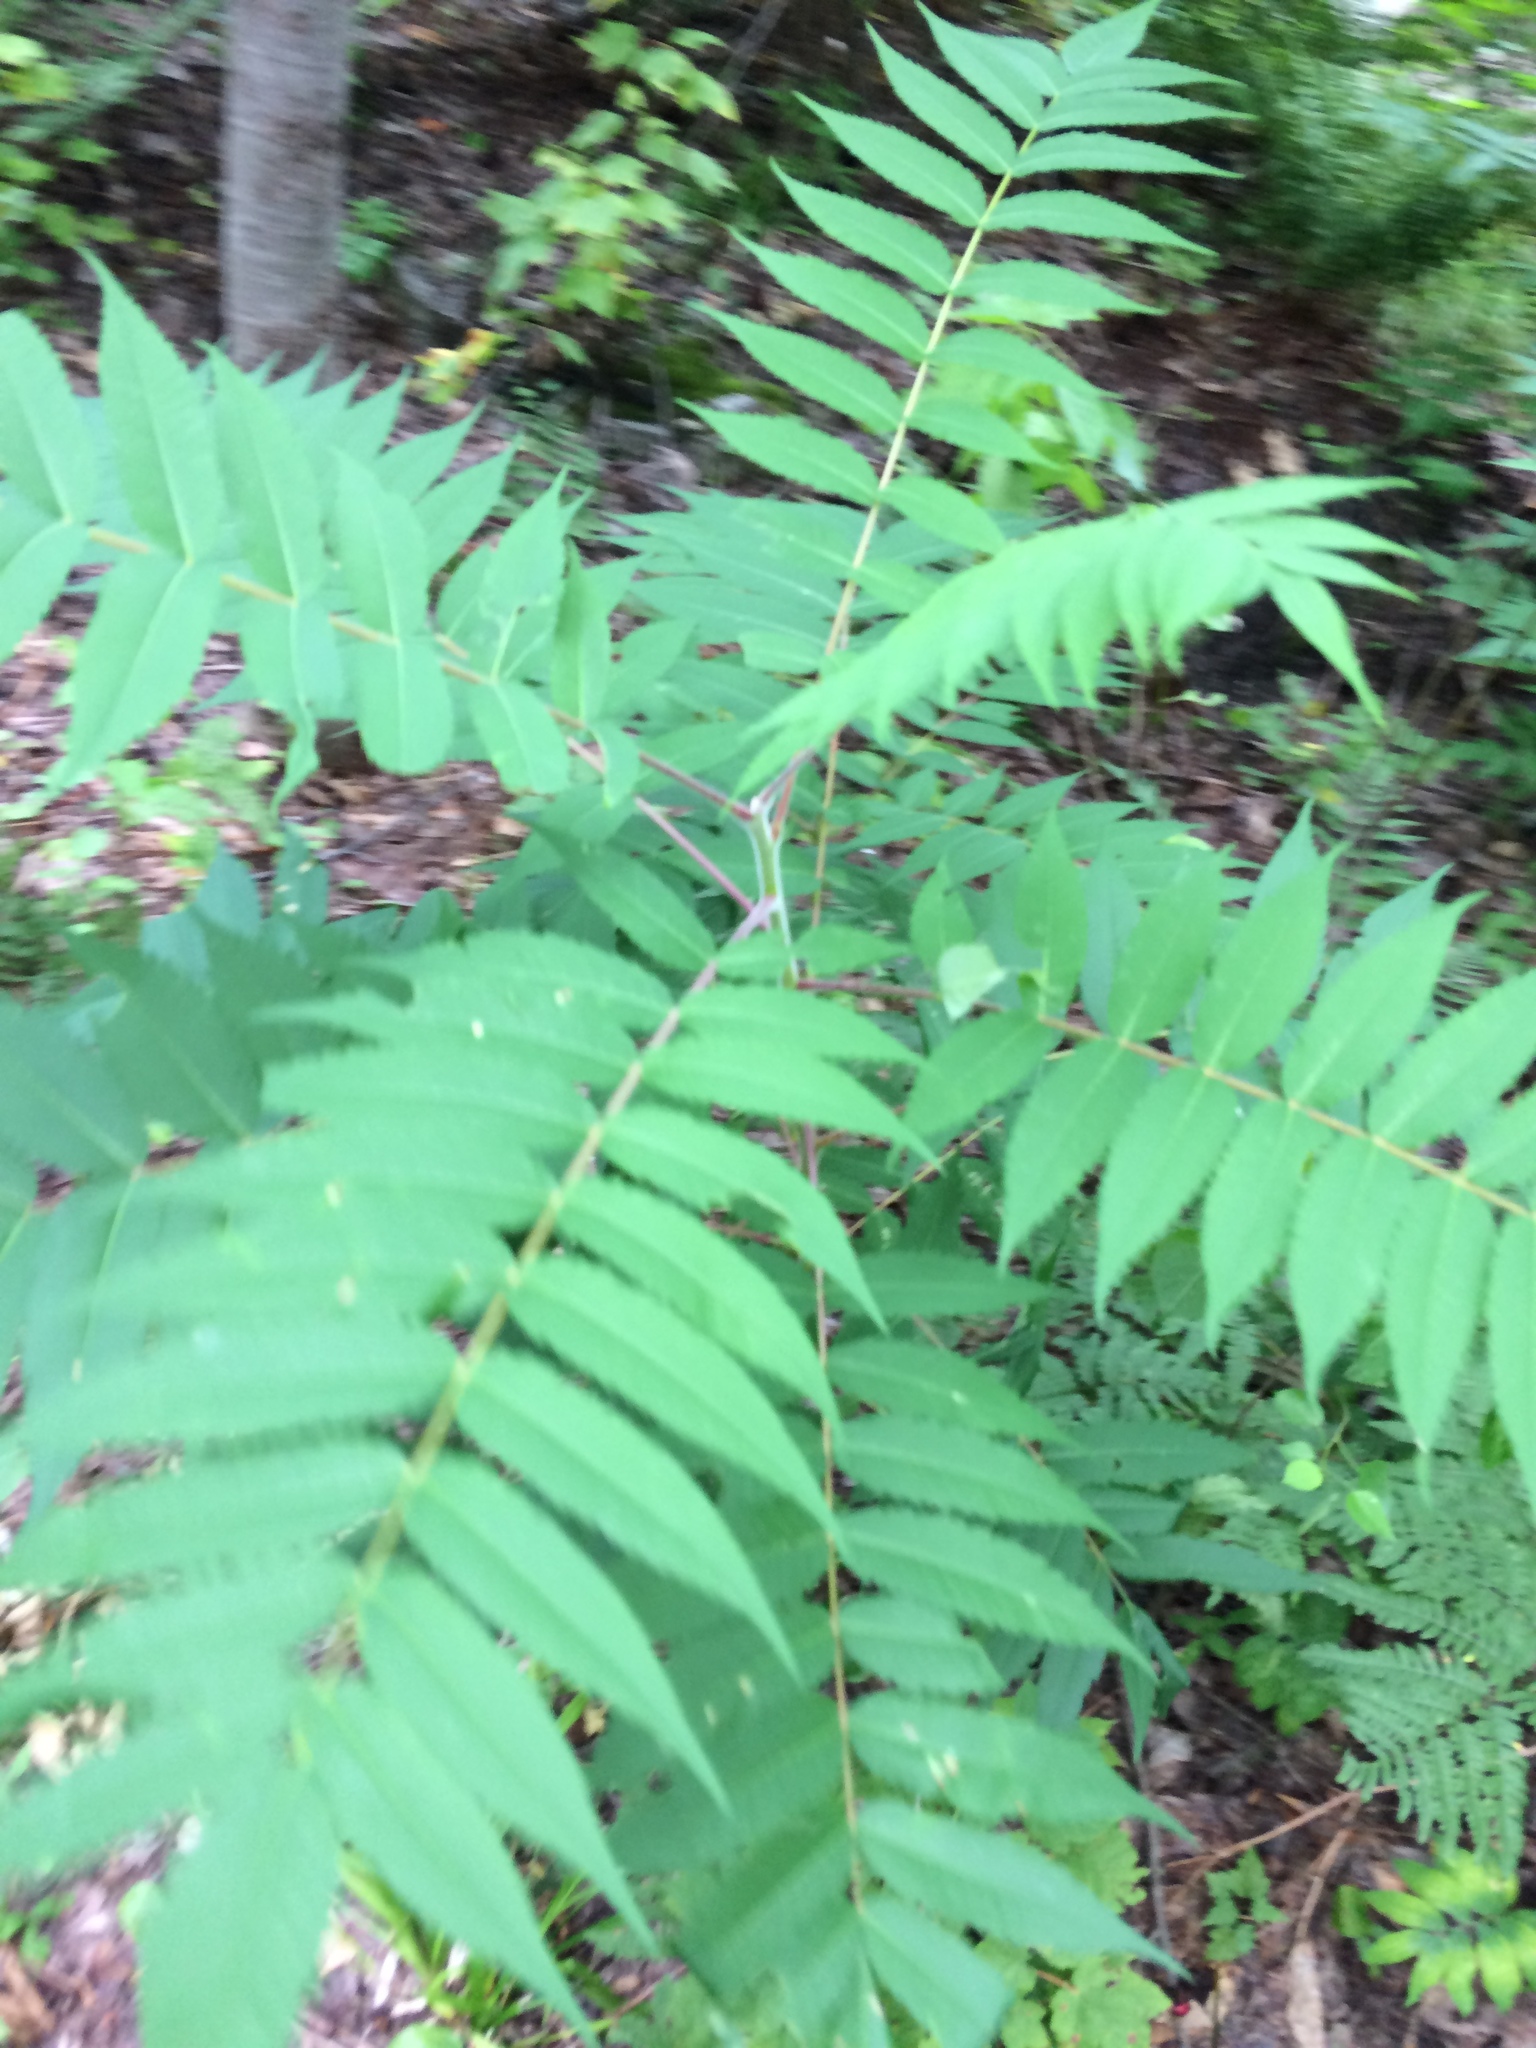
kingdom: Plantae
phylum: Tracheophyta
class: Magnoliopsida
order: Sapindales
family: Anacardiaceae
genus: Rhus
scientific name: Rhus typhina
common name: Staghorn sumac
